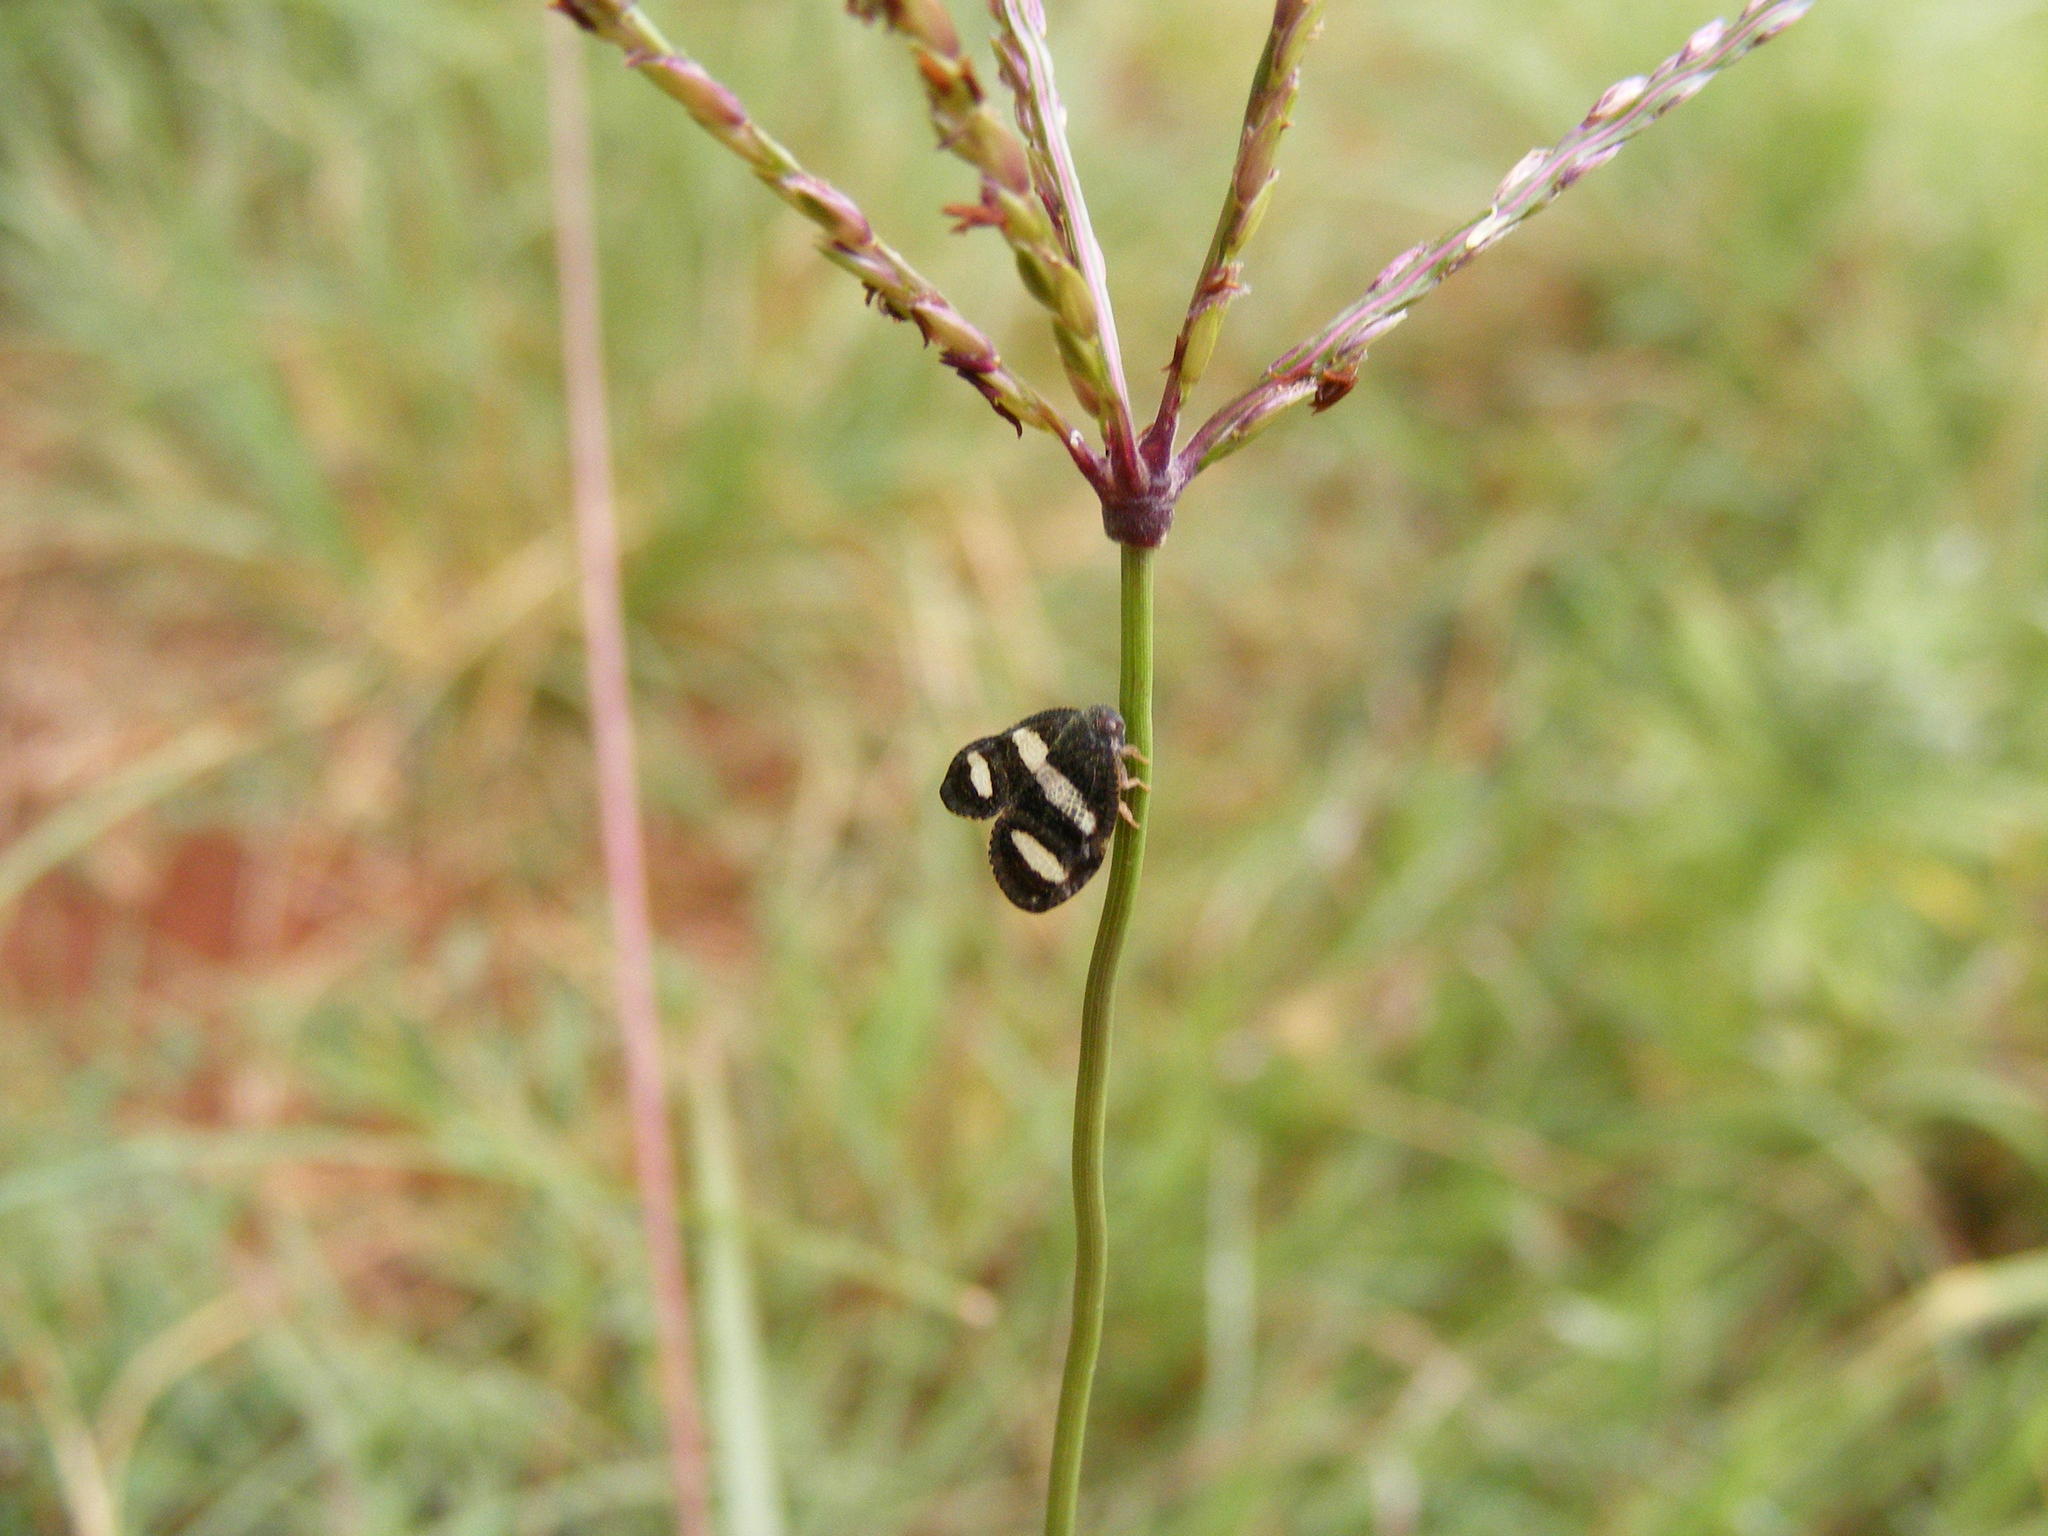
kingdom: Animalia
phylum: Arthropoda
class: Insecta
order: Hemiptera
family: Ricaniidae
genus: Mulvia
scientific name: Mulvia albizona
